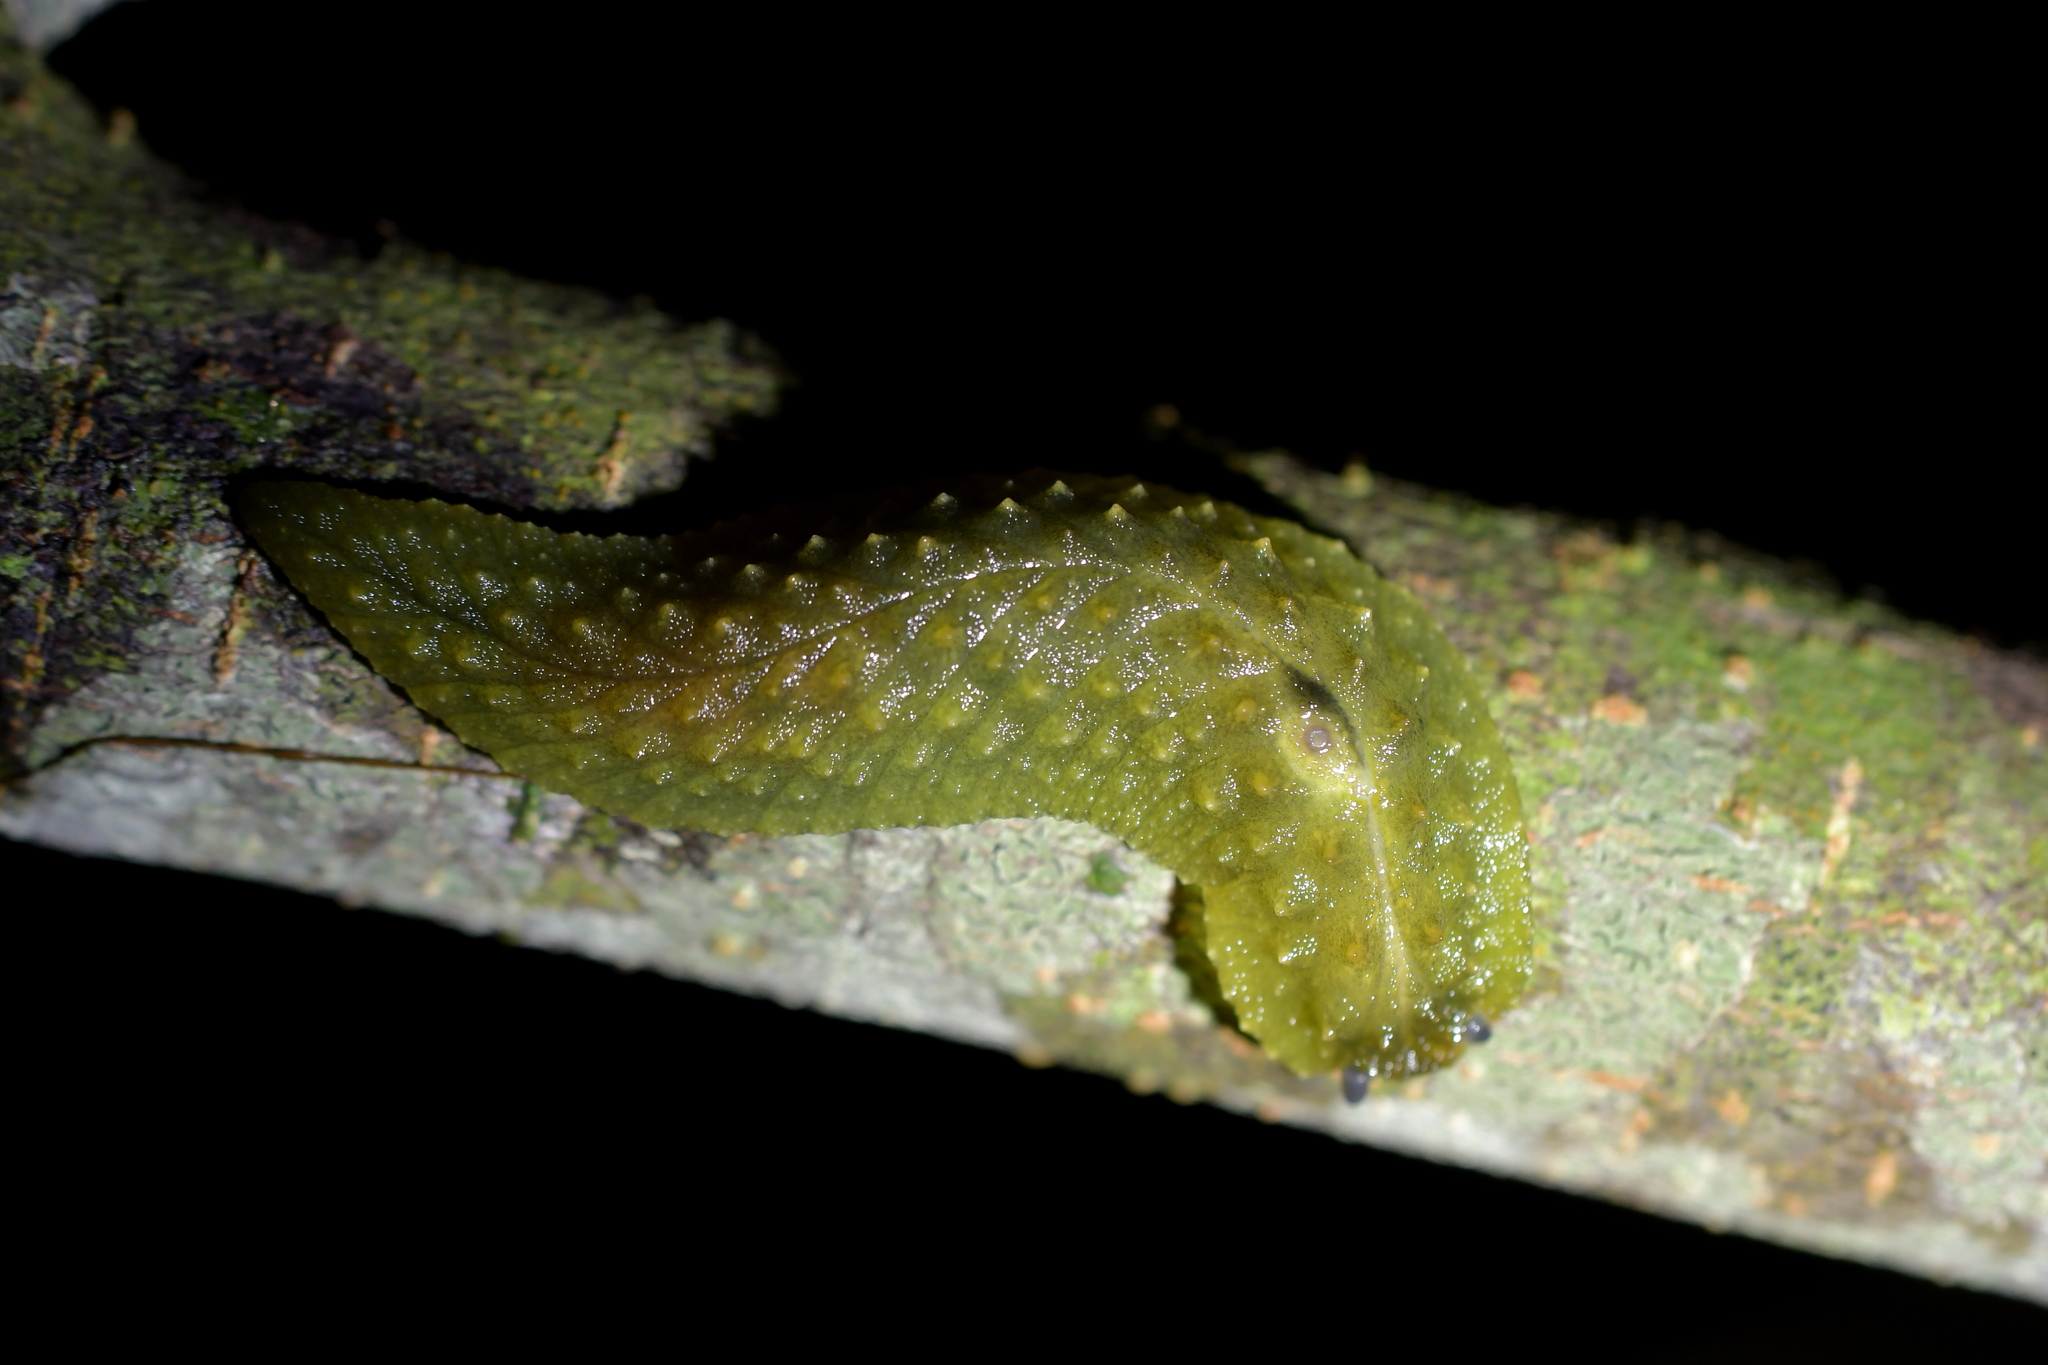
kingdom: Animalia
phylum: Mollusca
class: Gastropoda
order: Stylommatophora
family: Athoracophoridae
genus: Athoracophorus
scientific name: Athoracophorus papillatus
